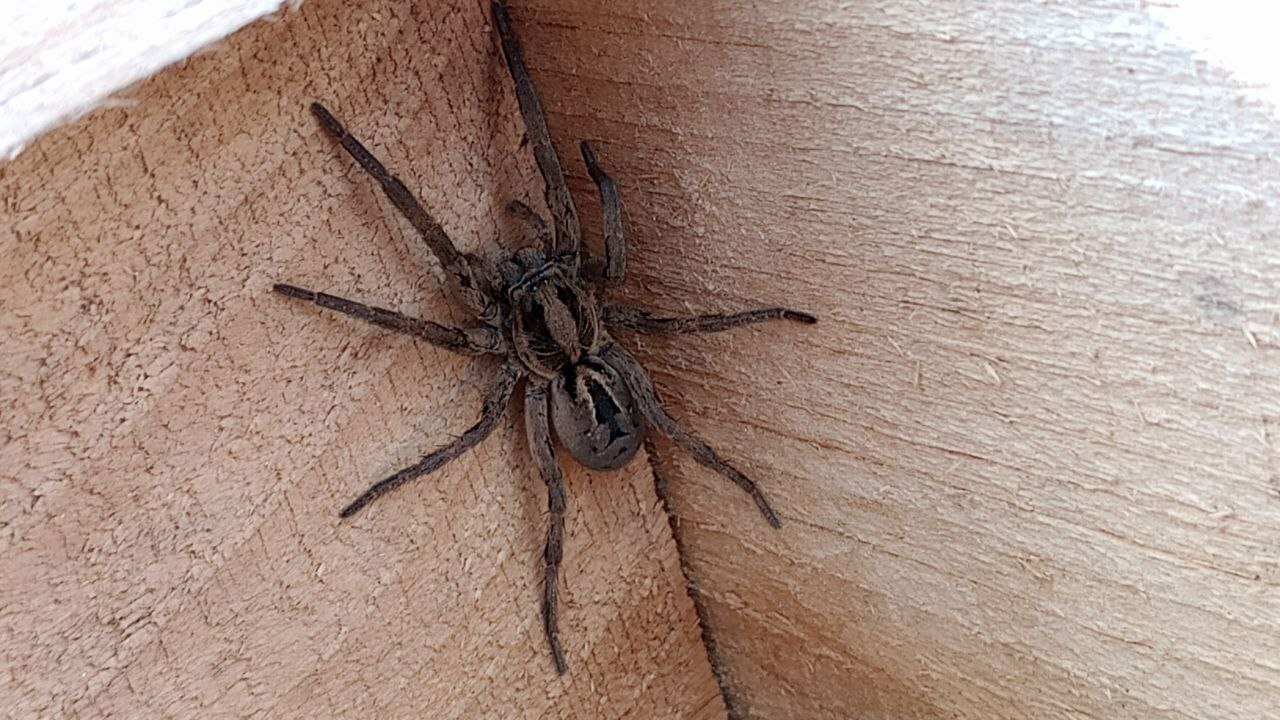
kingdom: Animalia
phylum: Arthropoda
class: Arachnida
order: Araneae
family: Lycosidae
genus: Lycosa
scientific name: Lycosa erythrognatha
